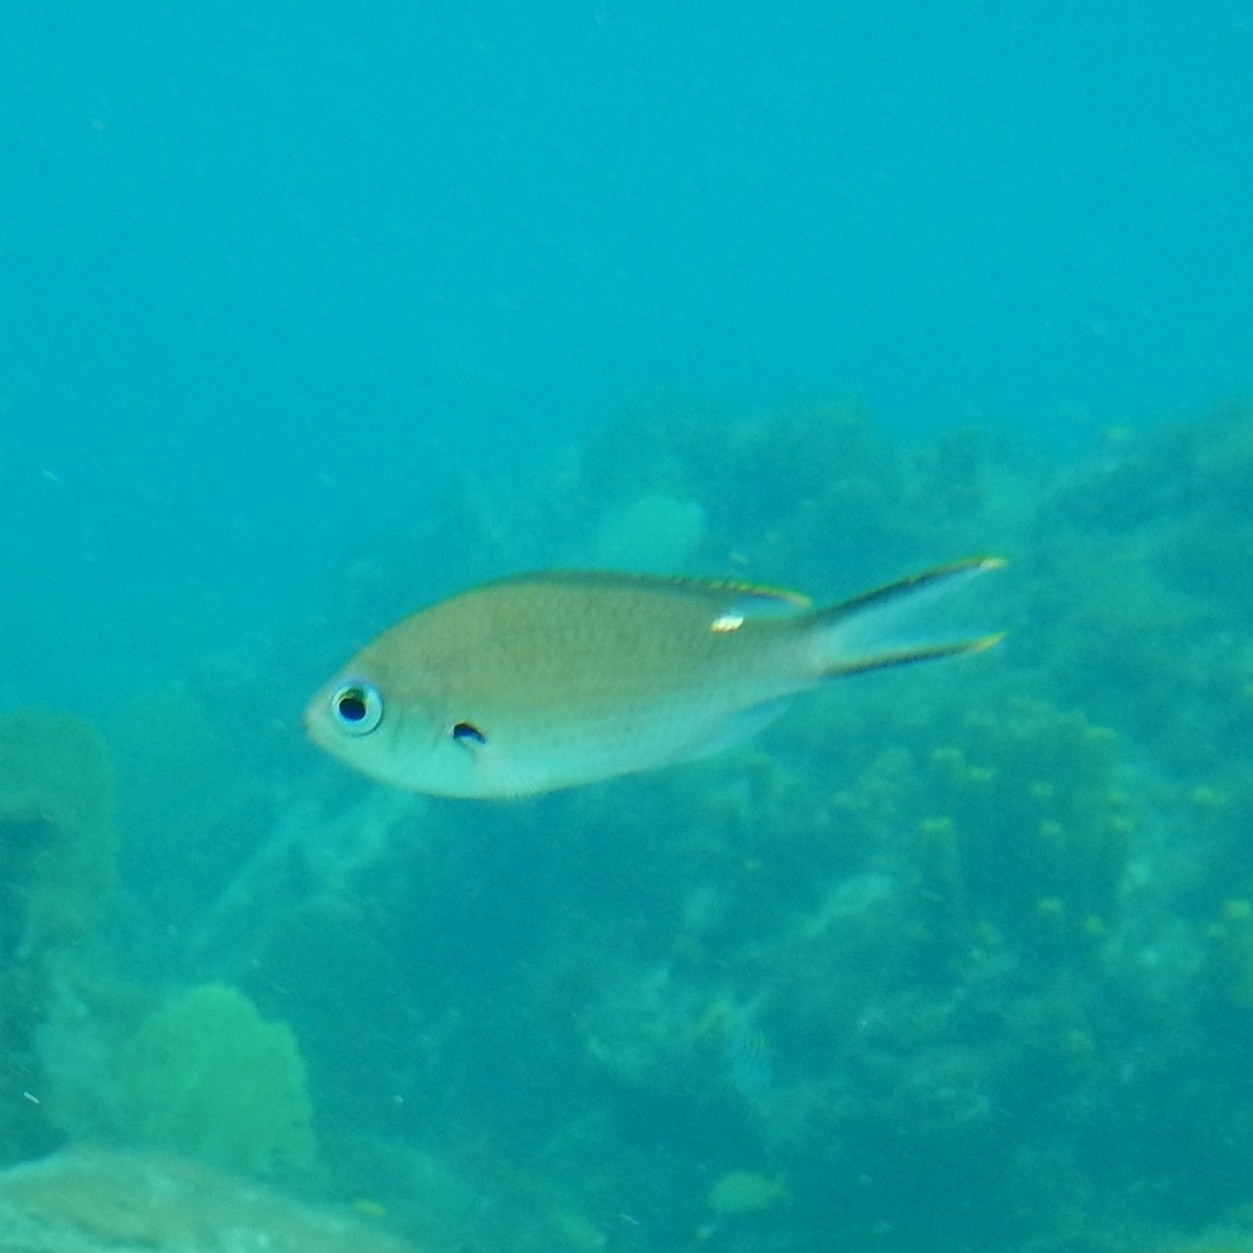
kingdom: Animalia
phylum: Chordata
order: Perciformes
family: Pomacentridae
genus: Chromis
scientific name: Chromis multilineata
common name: Brown chromis
